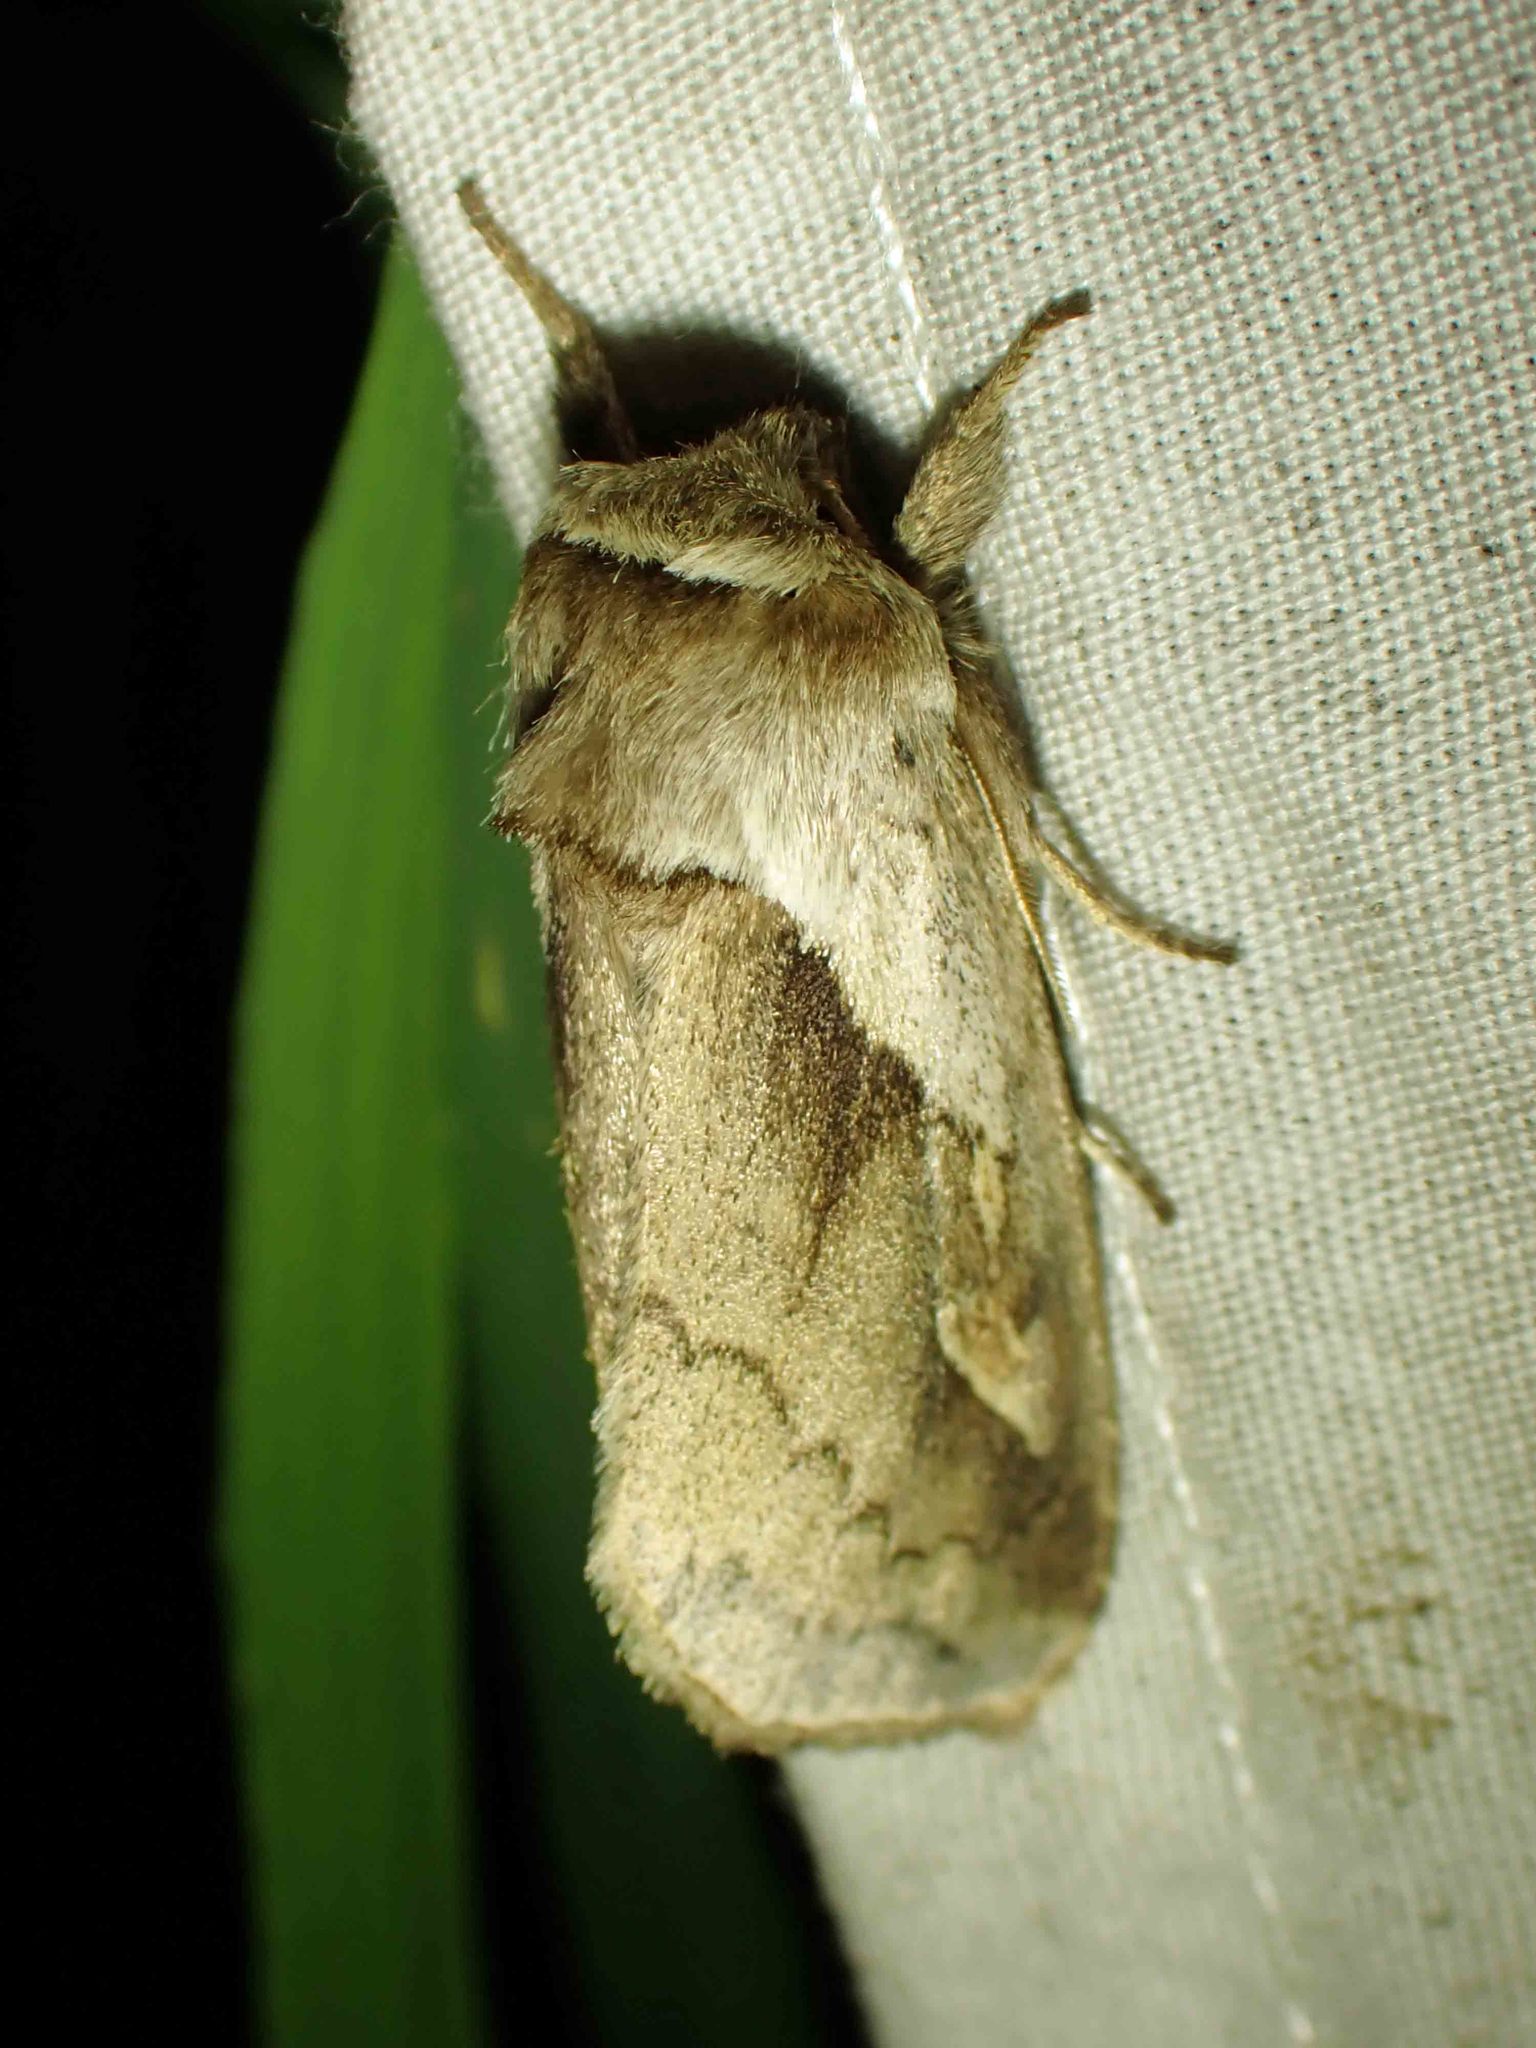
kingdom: Animalia
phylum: Arthropoda
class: Insecta
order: Lepidoptera
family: Noctuidae
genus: Bellura
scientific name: Bellura obliqua
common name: Cattail borer moth
